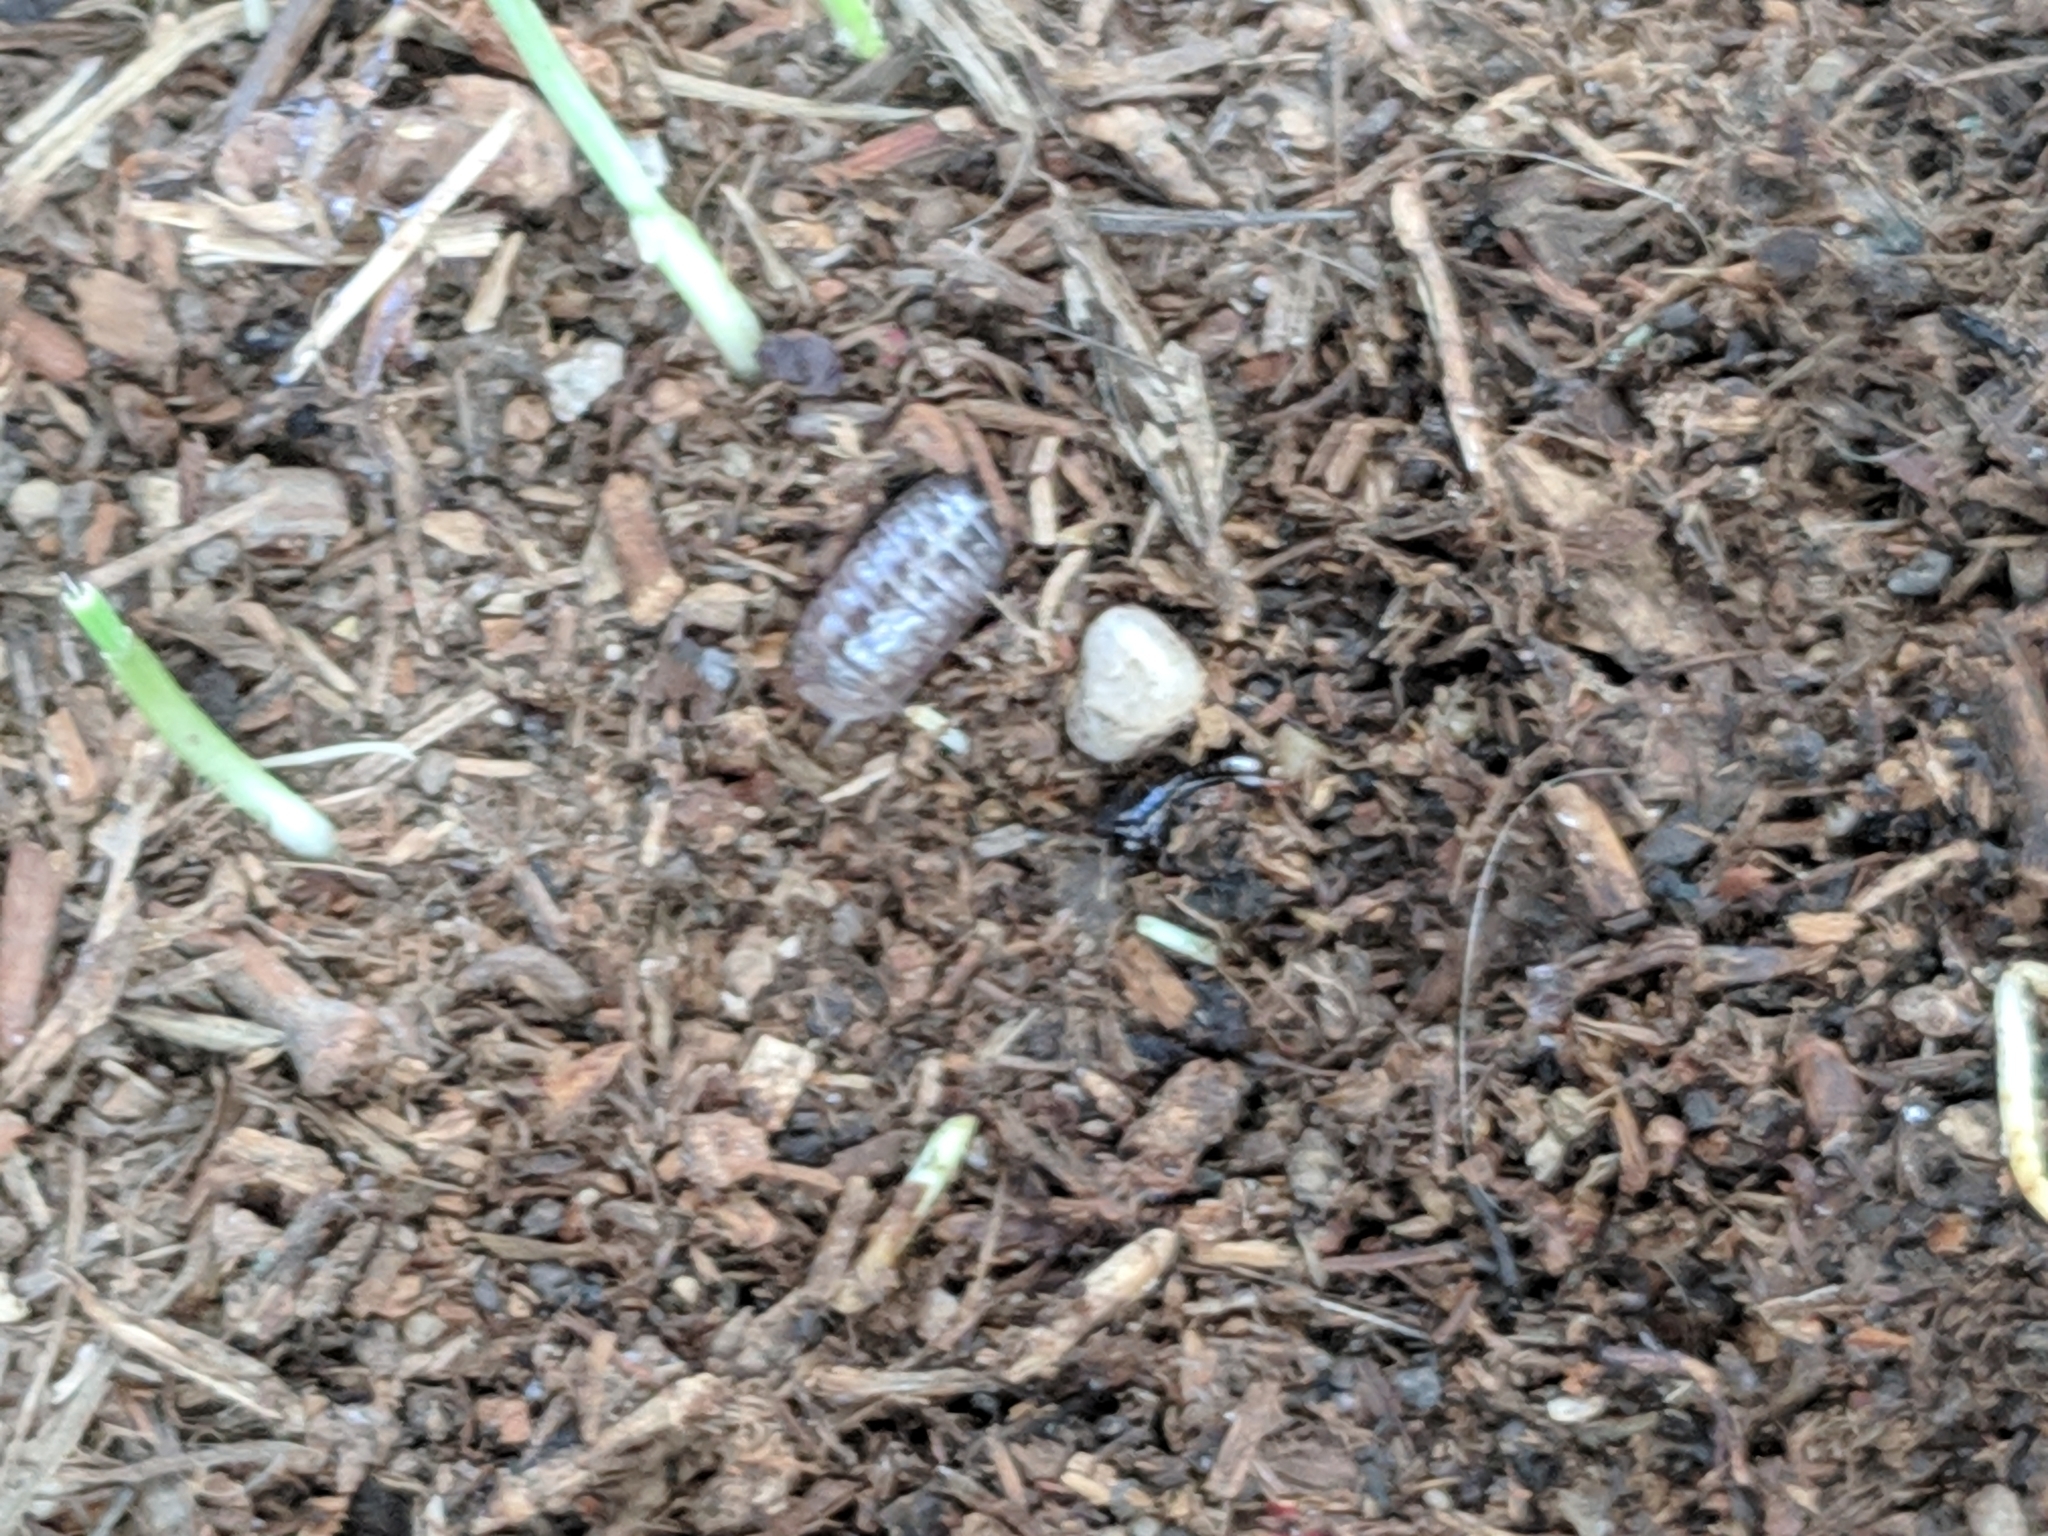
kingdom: Animalia
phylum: Arthropoda
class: Malacostraca
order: Isopoda
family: Armadillidiidae
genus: Armadillidium
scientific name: Armadillidium vulgare
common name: Common pill woodlouse
